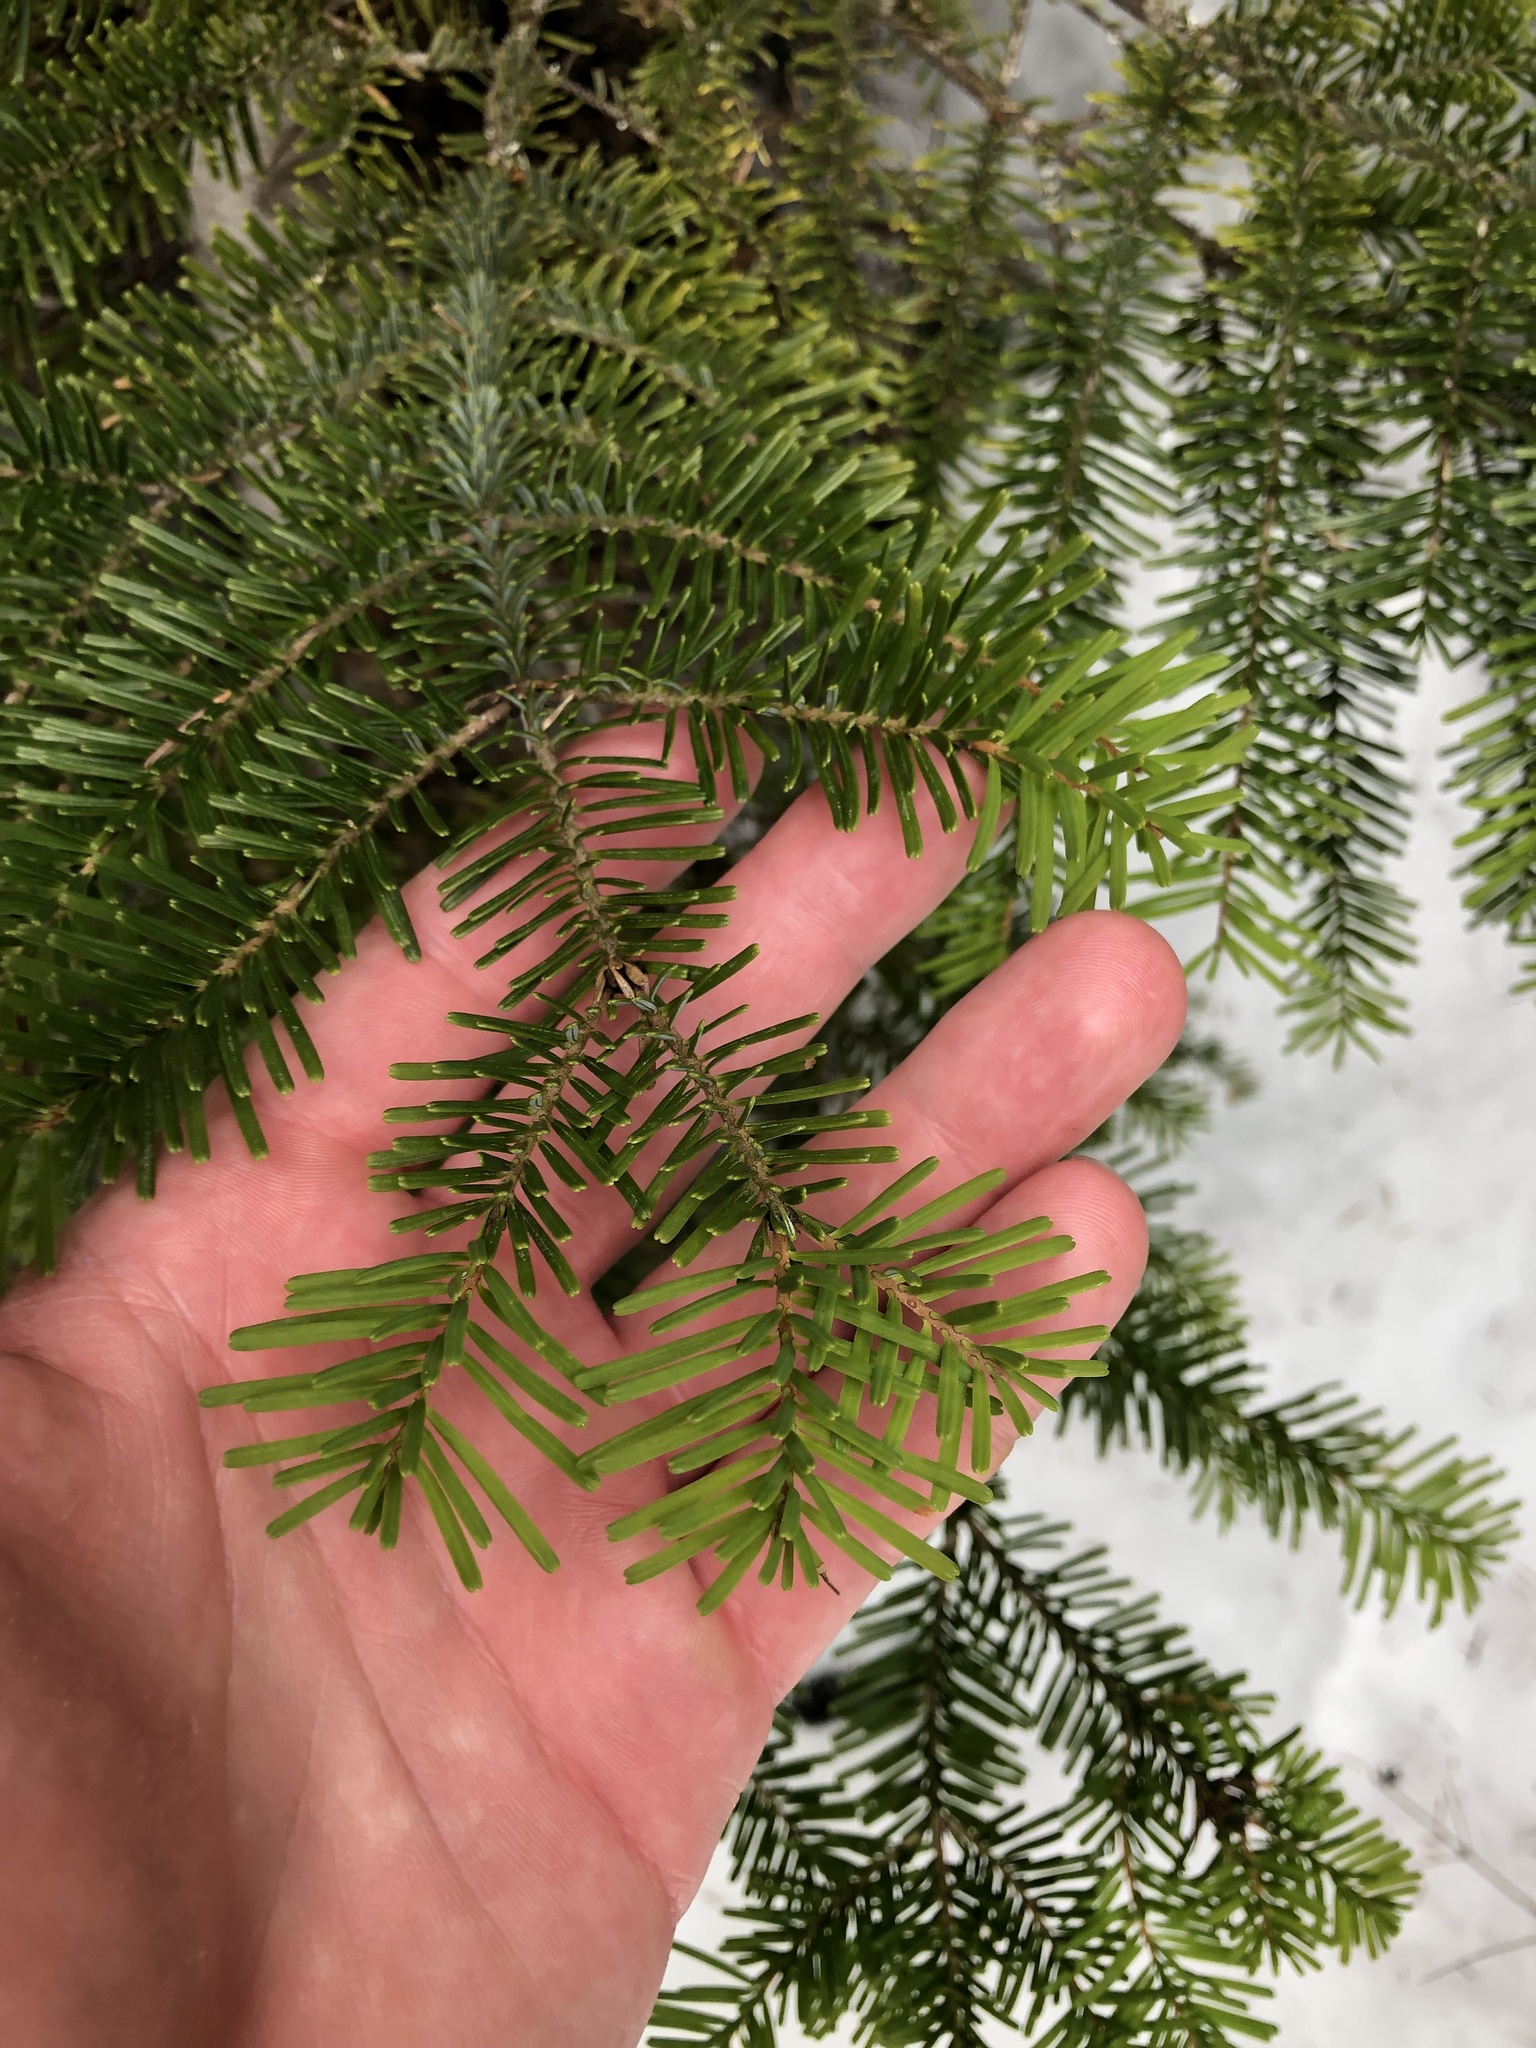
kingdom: Plantae
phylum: Tracheophyta
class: Pinopsida
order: Pinales
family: Pinaceae
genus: Abies
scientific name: Abies amabilis
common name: Pacific silver fir
